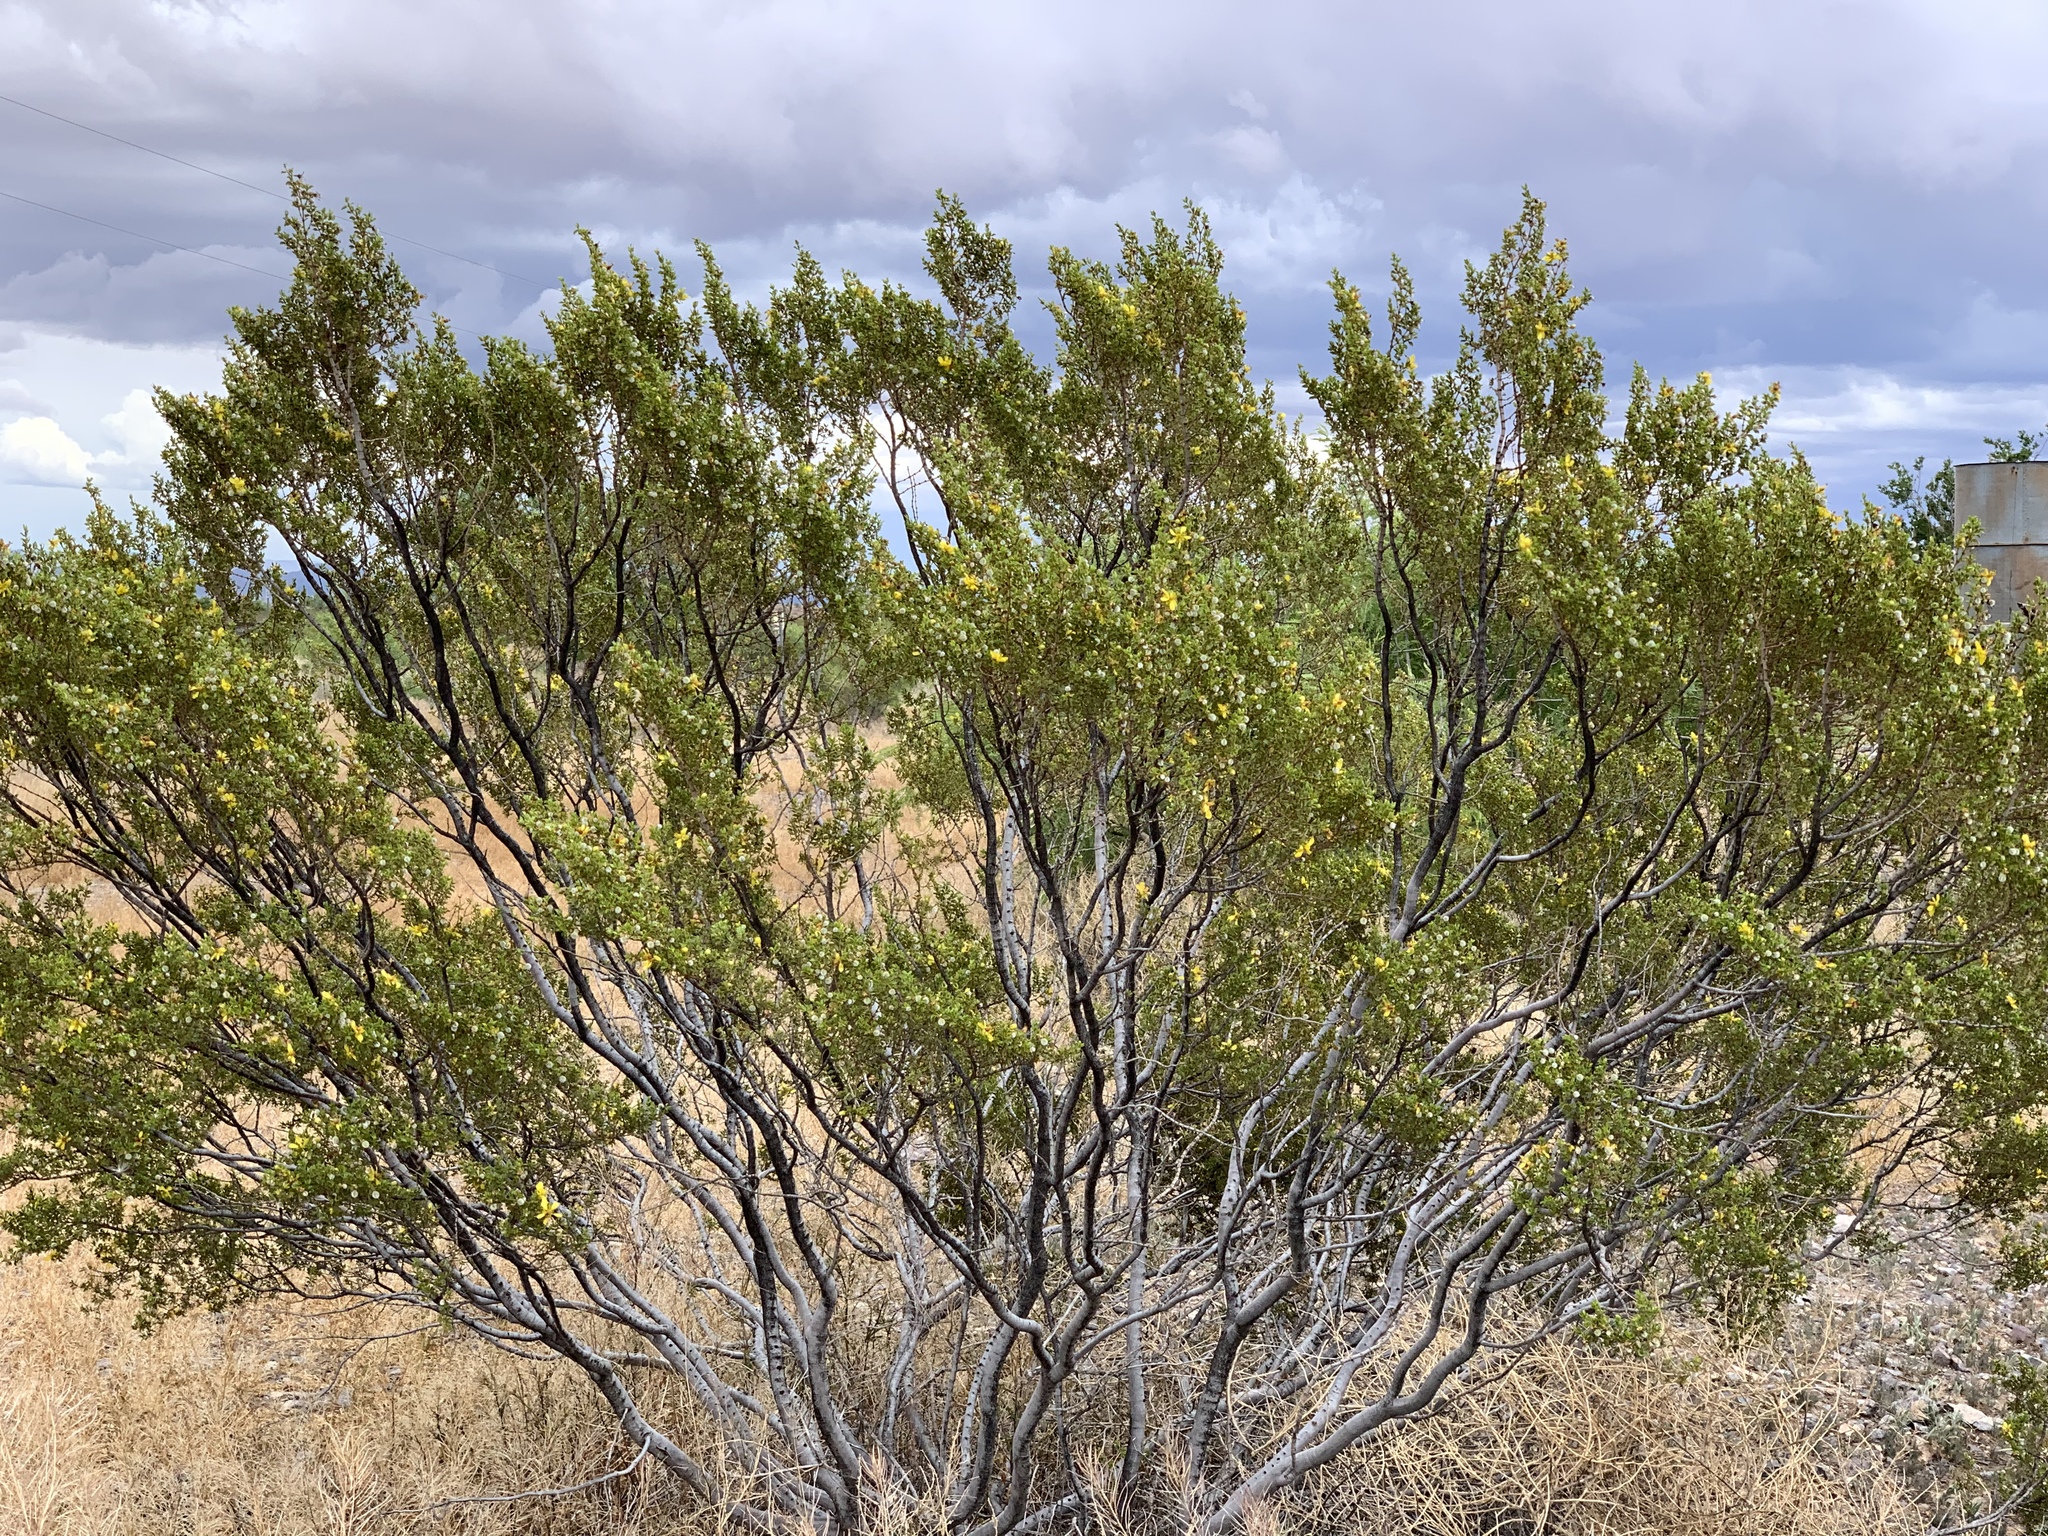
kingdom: Plantae
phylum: Tracheophyta
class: Magnoliopsida
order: Zygophyllales
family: Zygophyllaceae
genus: Larrea
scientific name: Larrea tridentata
